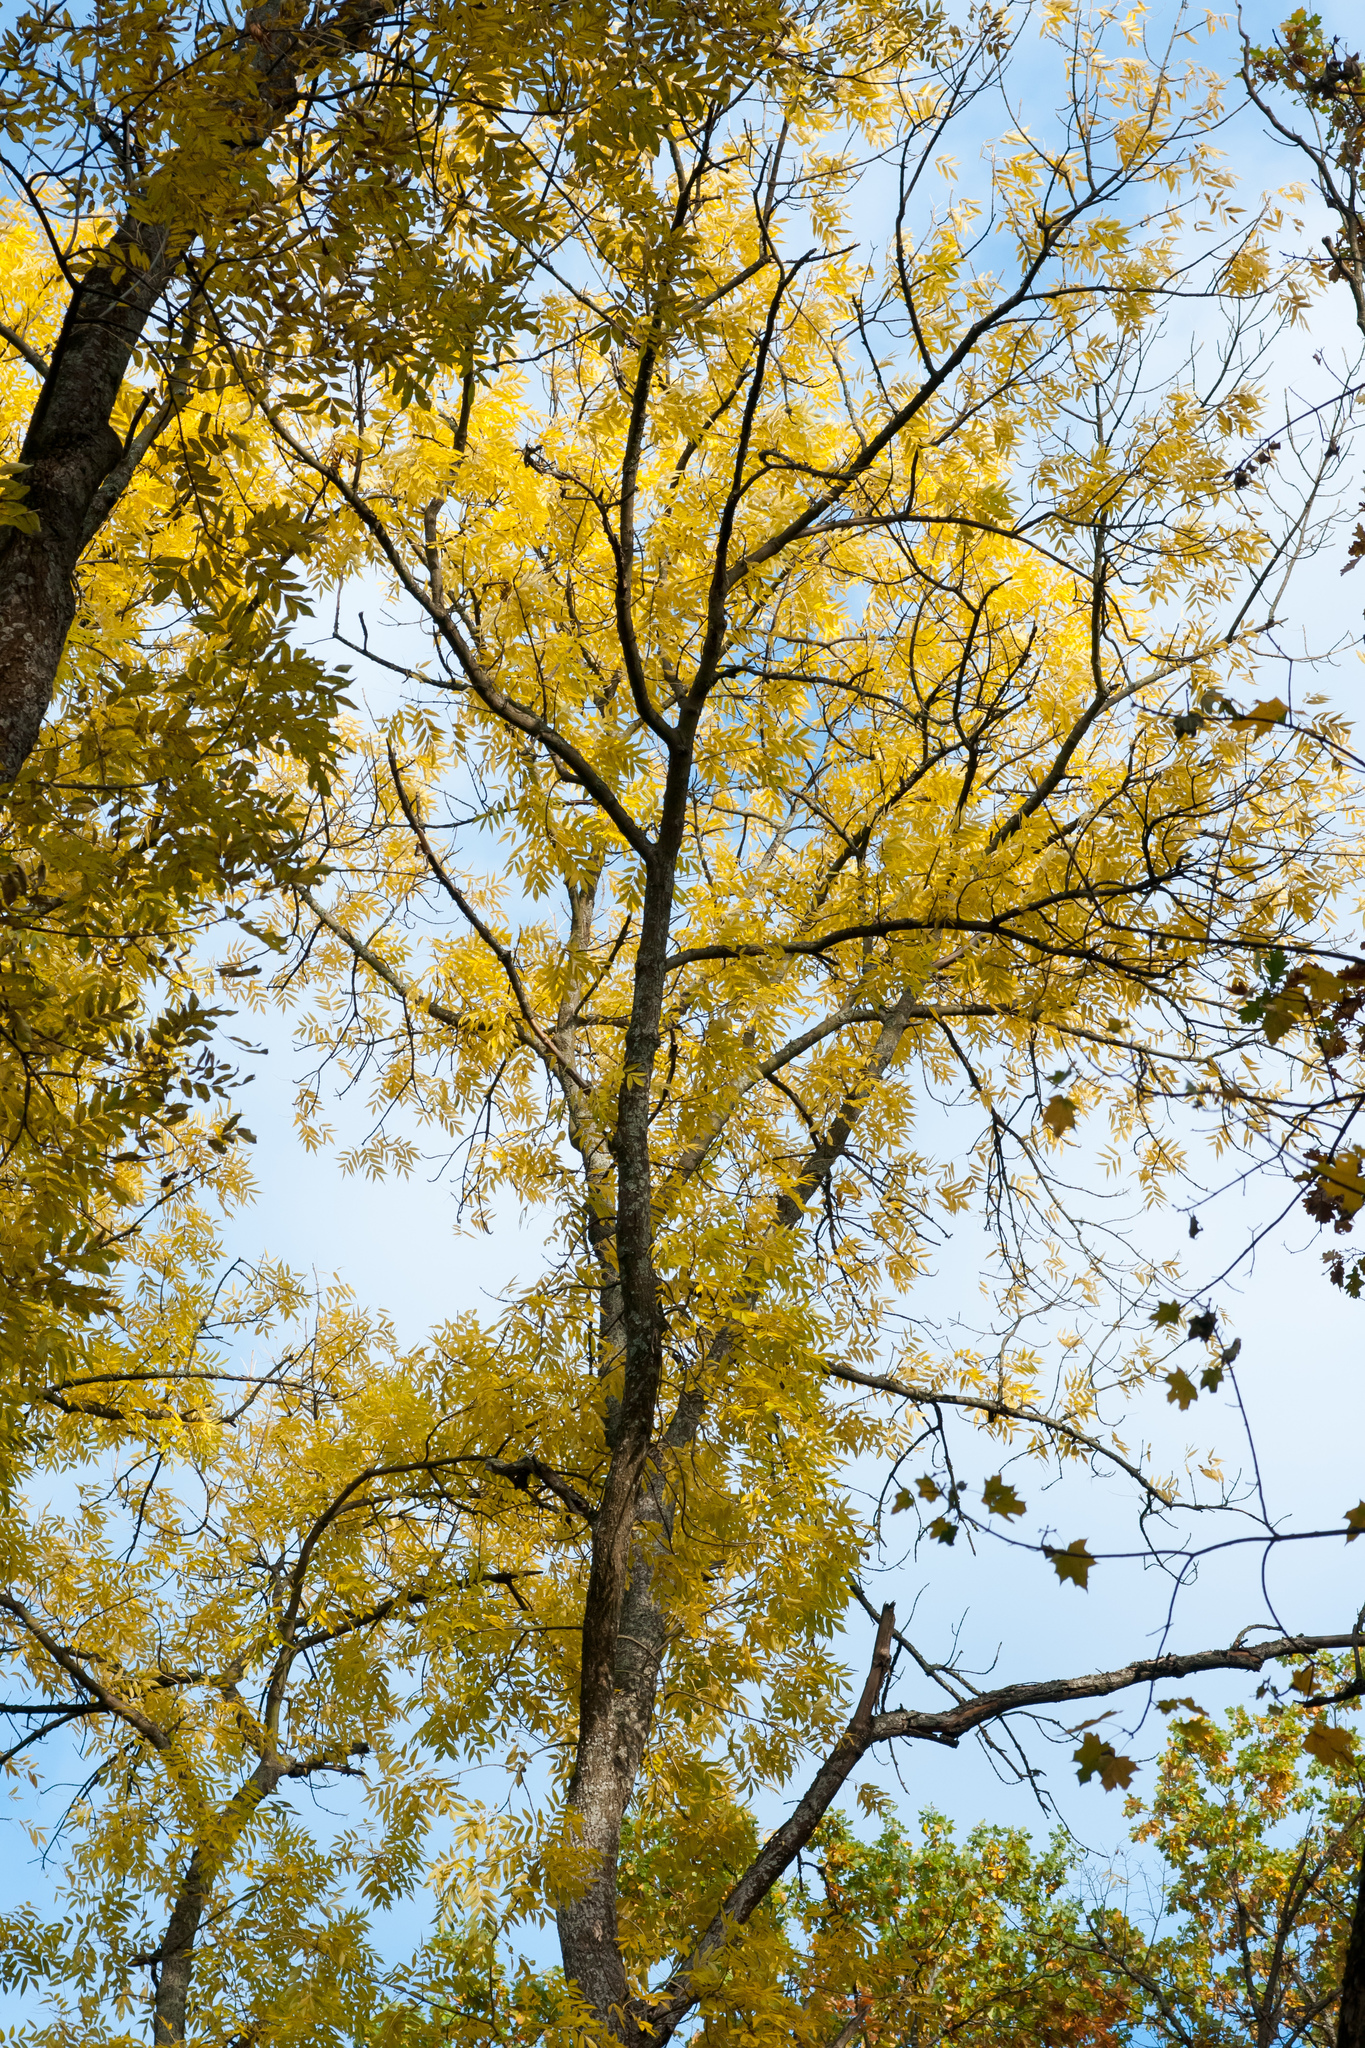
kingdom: Plantae
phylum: Tracheophyta
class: Magnoliopsida
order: Lamiales
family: Oleaceae
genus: Fraxinus
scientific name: Fraxinus excelsior
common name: European ash
